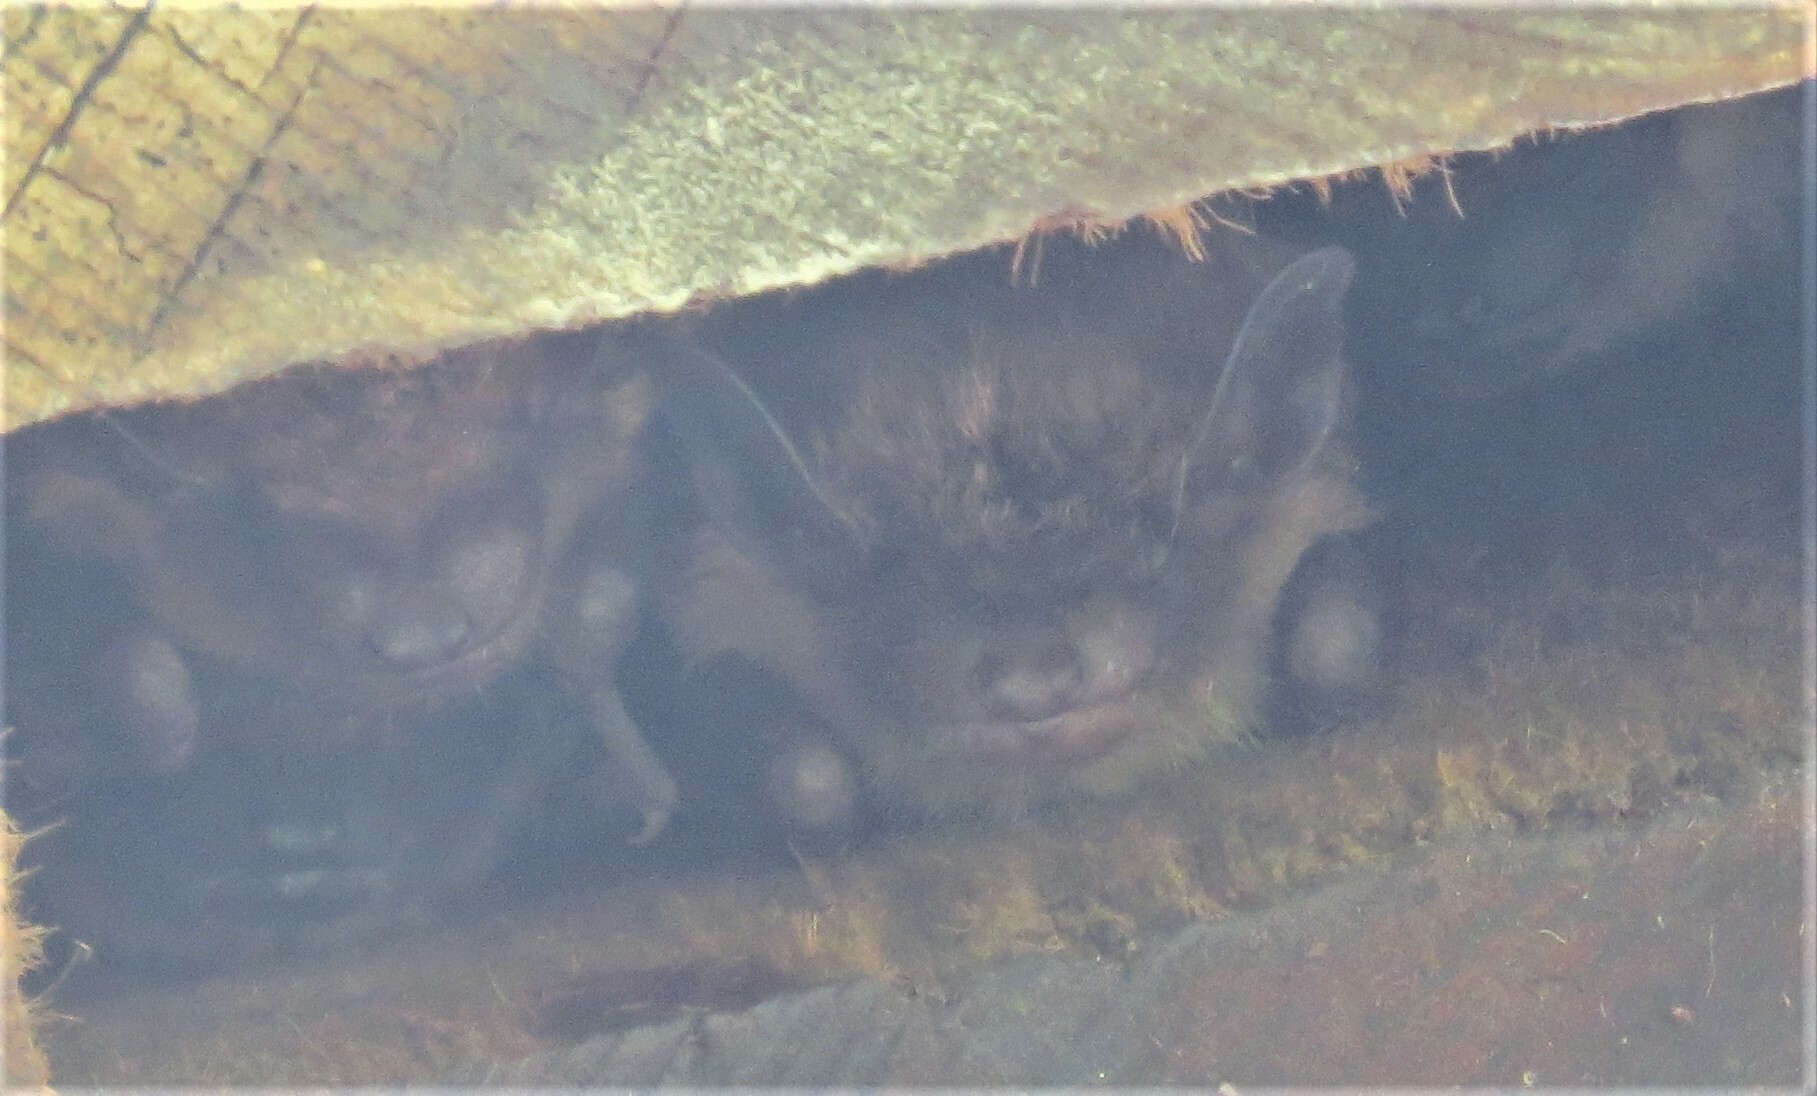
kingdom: Animalia
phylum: Chordata
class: Mammalia
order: Chiroptera
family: Vespertilionidae
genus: Eptesicus
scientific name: Eptesicus fuscus
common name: Big brown bat
